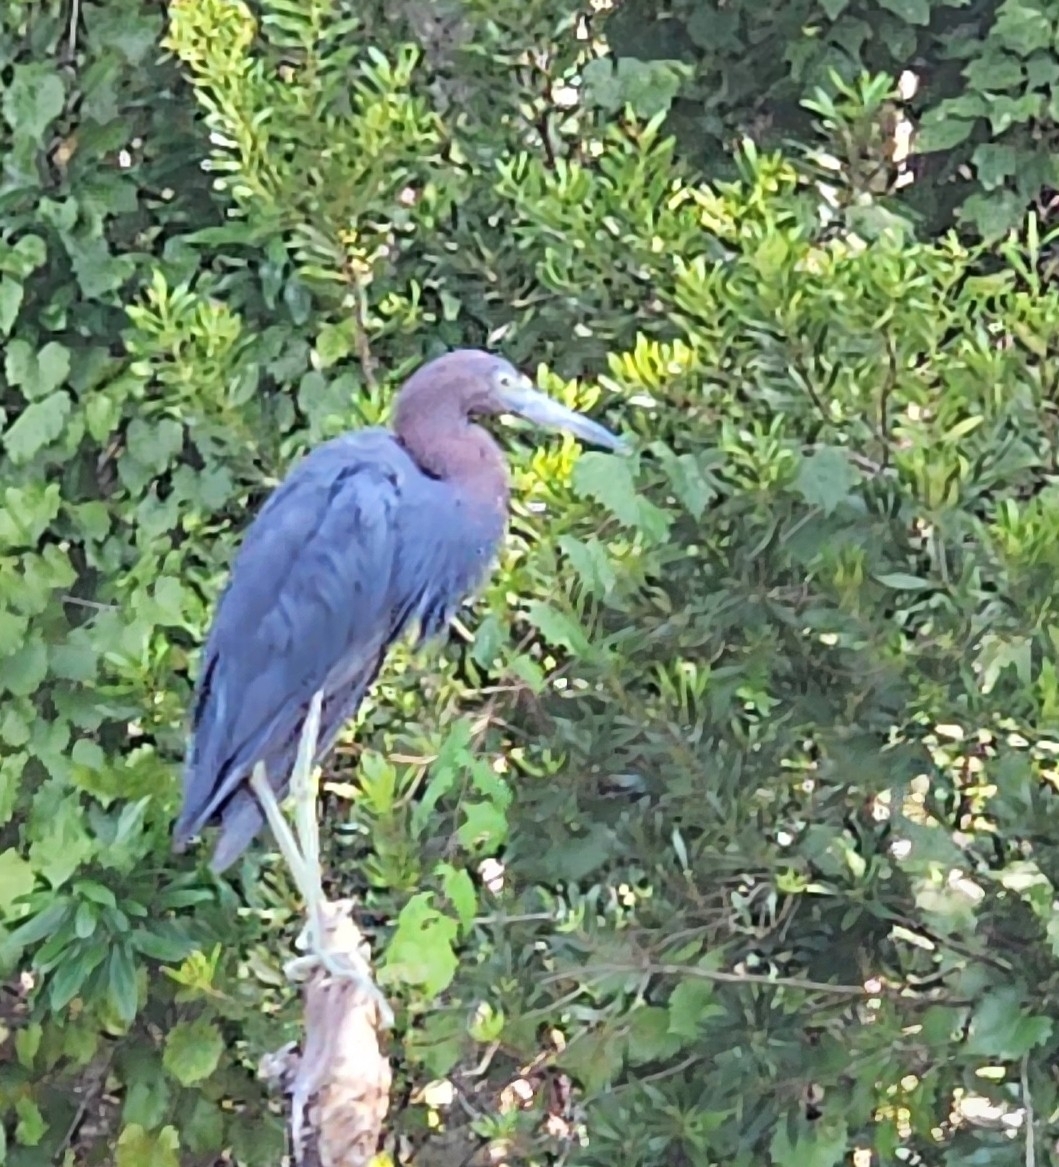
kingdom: Animalia
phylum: Chordata
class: Aves
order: Pelecaniformes
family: Ardeidae
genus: Egretta
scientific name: Egretta caerulea
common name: Little blue heron
